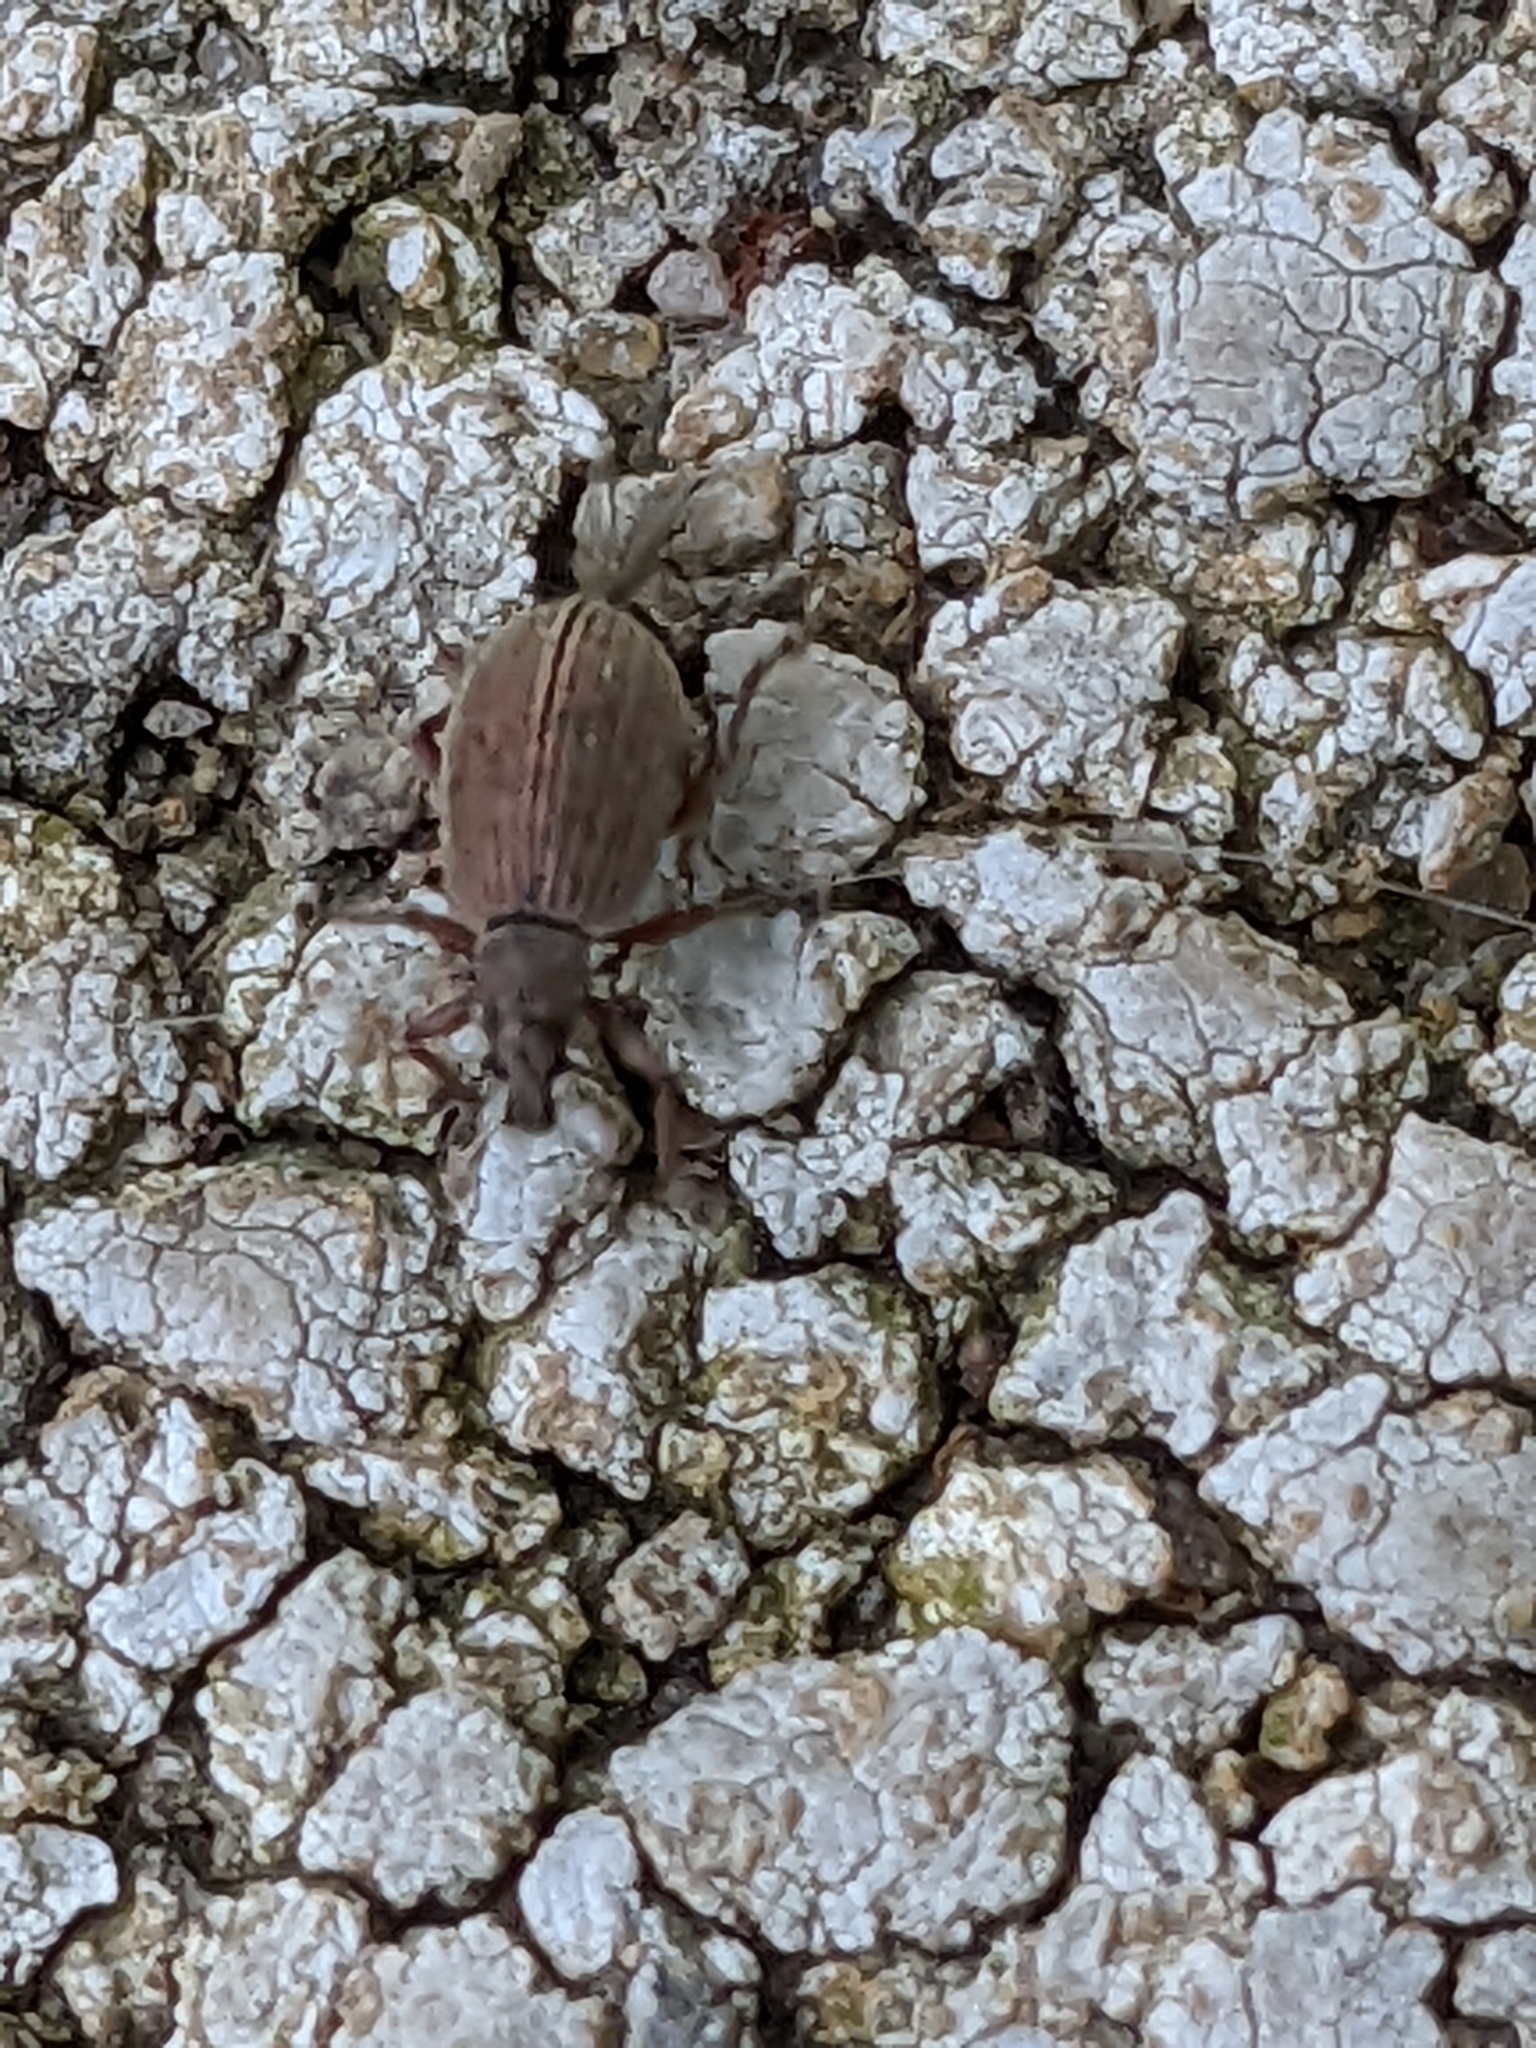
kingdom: Animalia
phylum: Arthropoda
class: Insecta
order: Coleoptera
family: Curculionidae
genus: Polydrusus
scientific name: Polydrusus mollis
